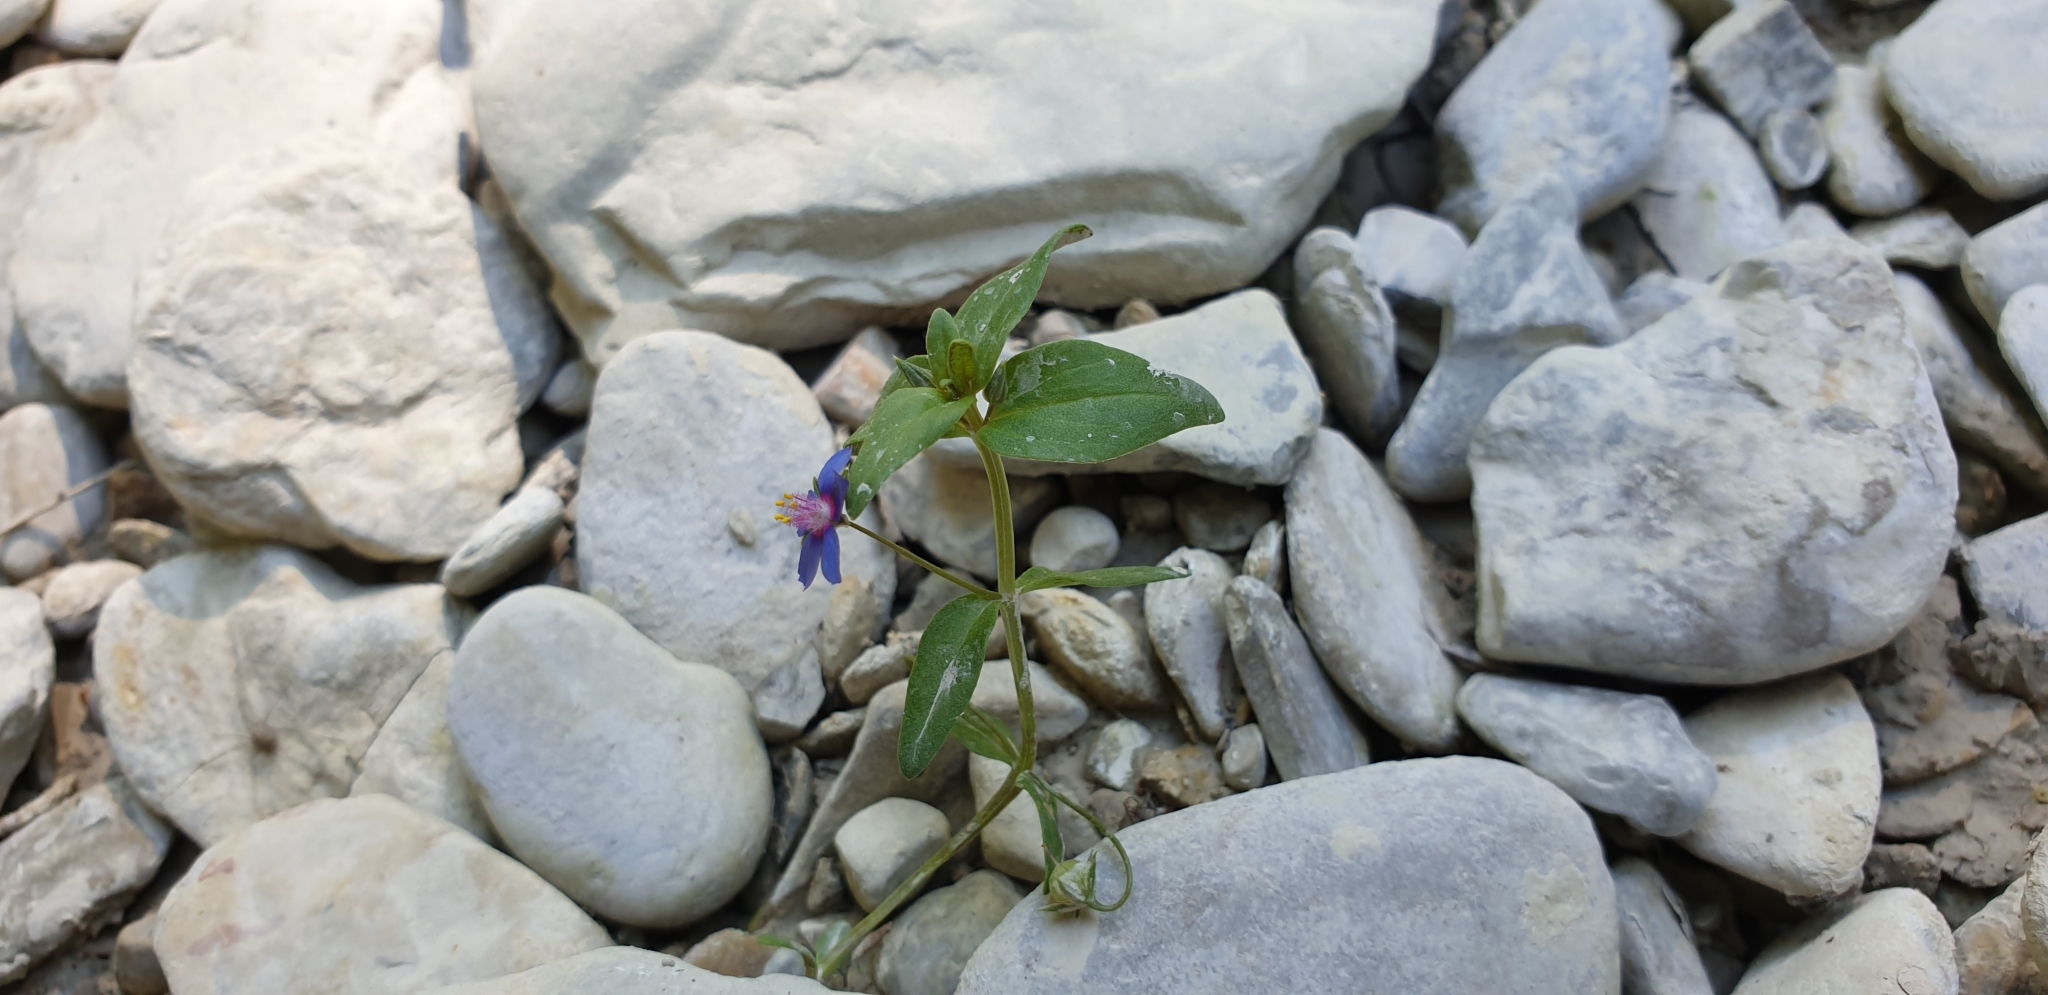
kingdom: Plantae
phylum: Tracheophyta
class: Magnoliopsida
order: Ericales
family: Primulaceae
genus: Lysimachia
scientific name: Lysimachia foemina
